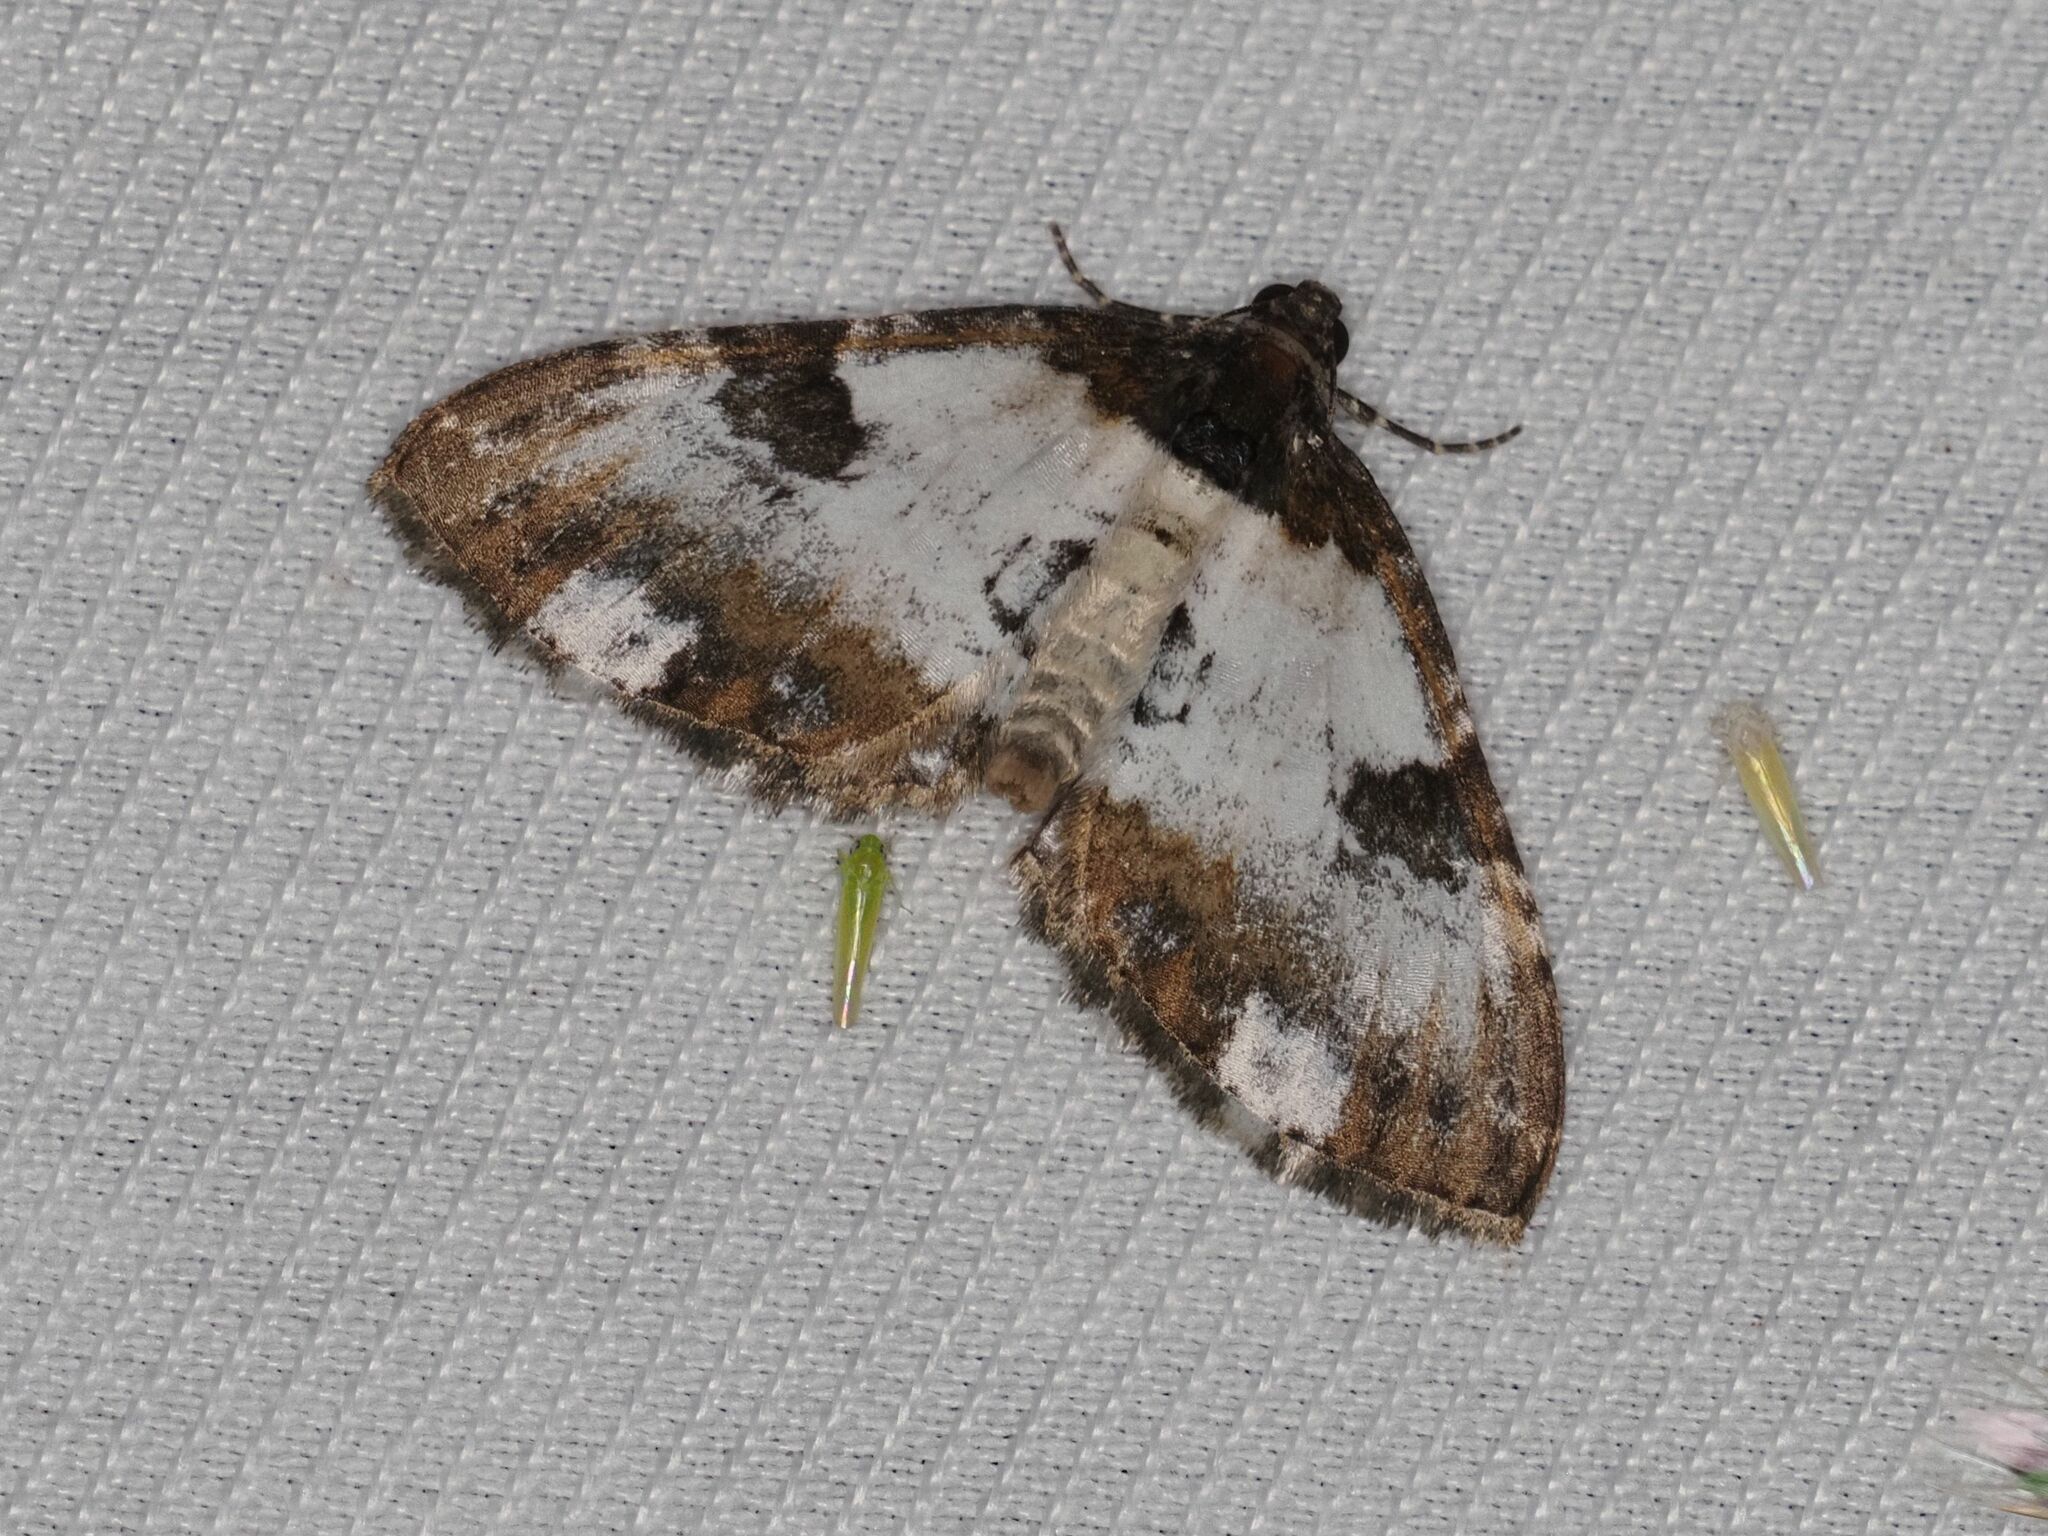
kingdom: Animalia
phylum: Arthropoda
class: Insecta
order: Lepidoptera
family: Geometridae
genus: Melanthia
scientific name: Melanthia procellata
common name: Pretty chalk carpet
